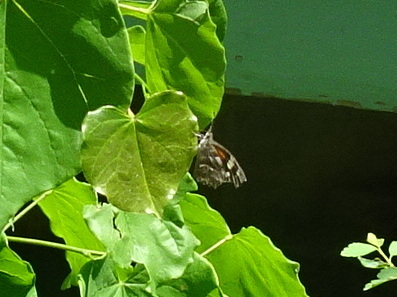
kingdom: Animalia
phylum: Arthropoda
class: Insecta
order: Lepidoptera
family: Nymphalidae
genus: Libytheana
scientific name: Libytheana carinenta
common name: American snout
